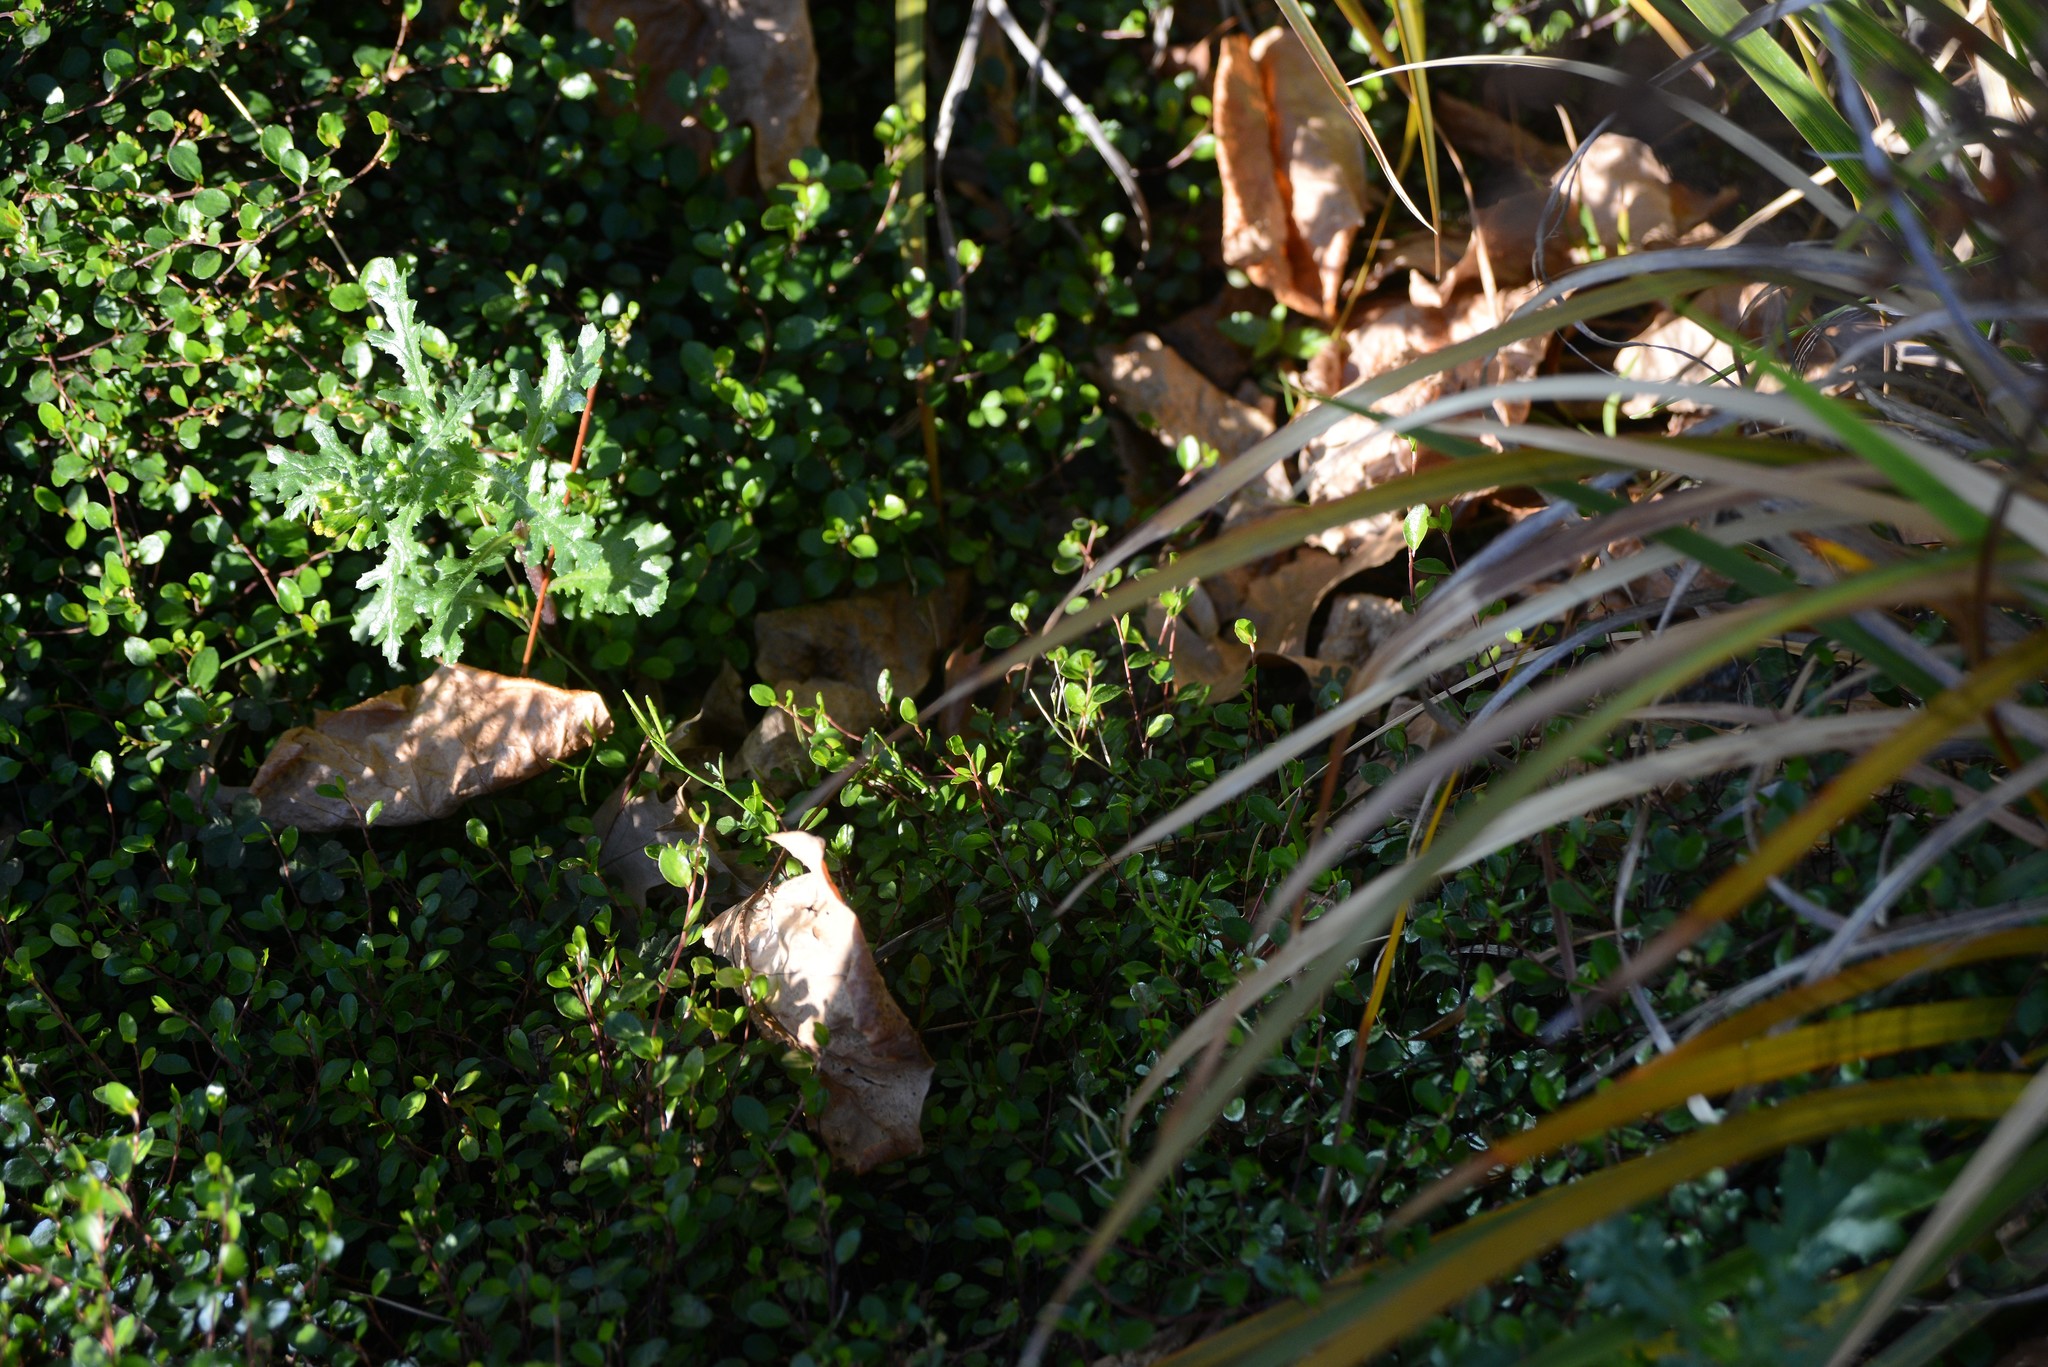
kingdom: Plantae
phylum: Tracheophyta
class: Magnoliopsida
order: Asterales
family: Asteraceae
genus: Senecio
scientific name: Senecio vulgaris
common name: Old-man-in-the-spring
